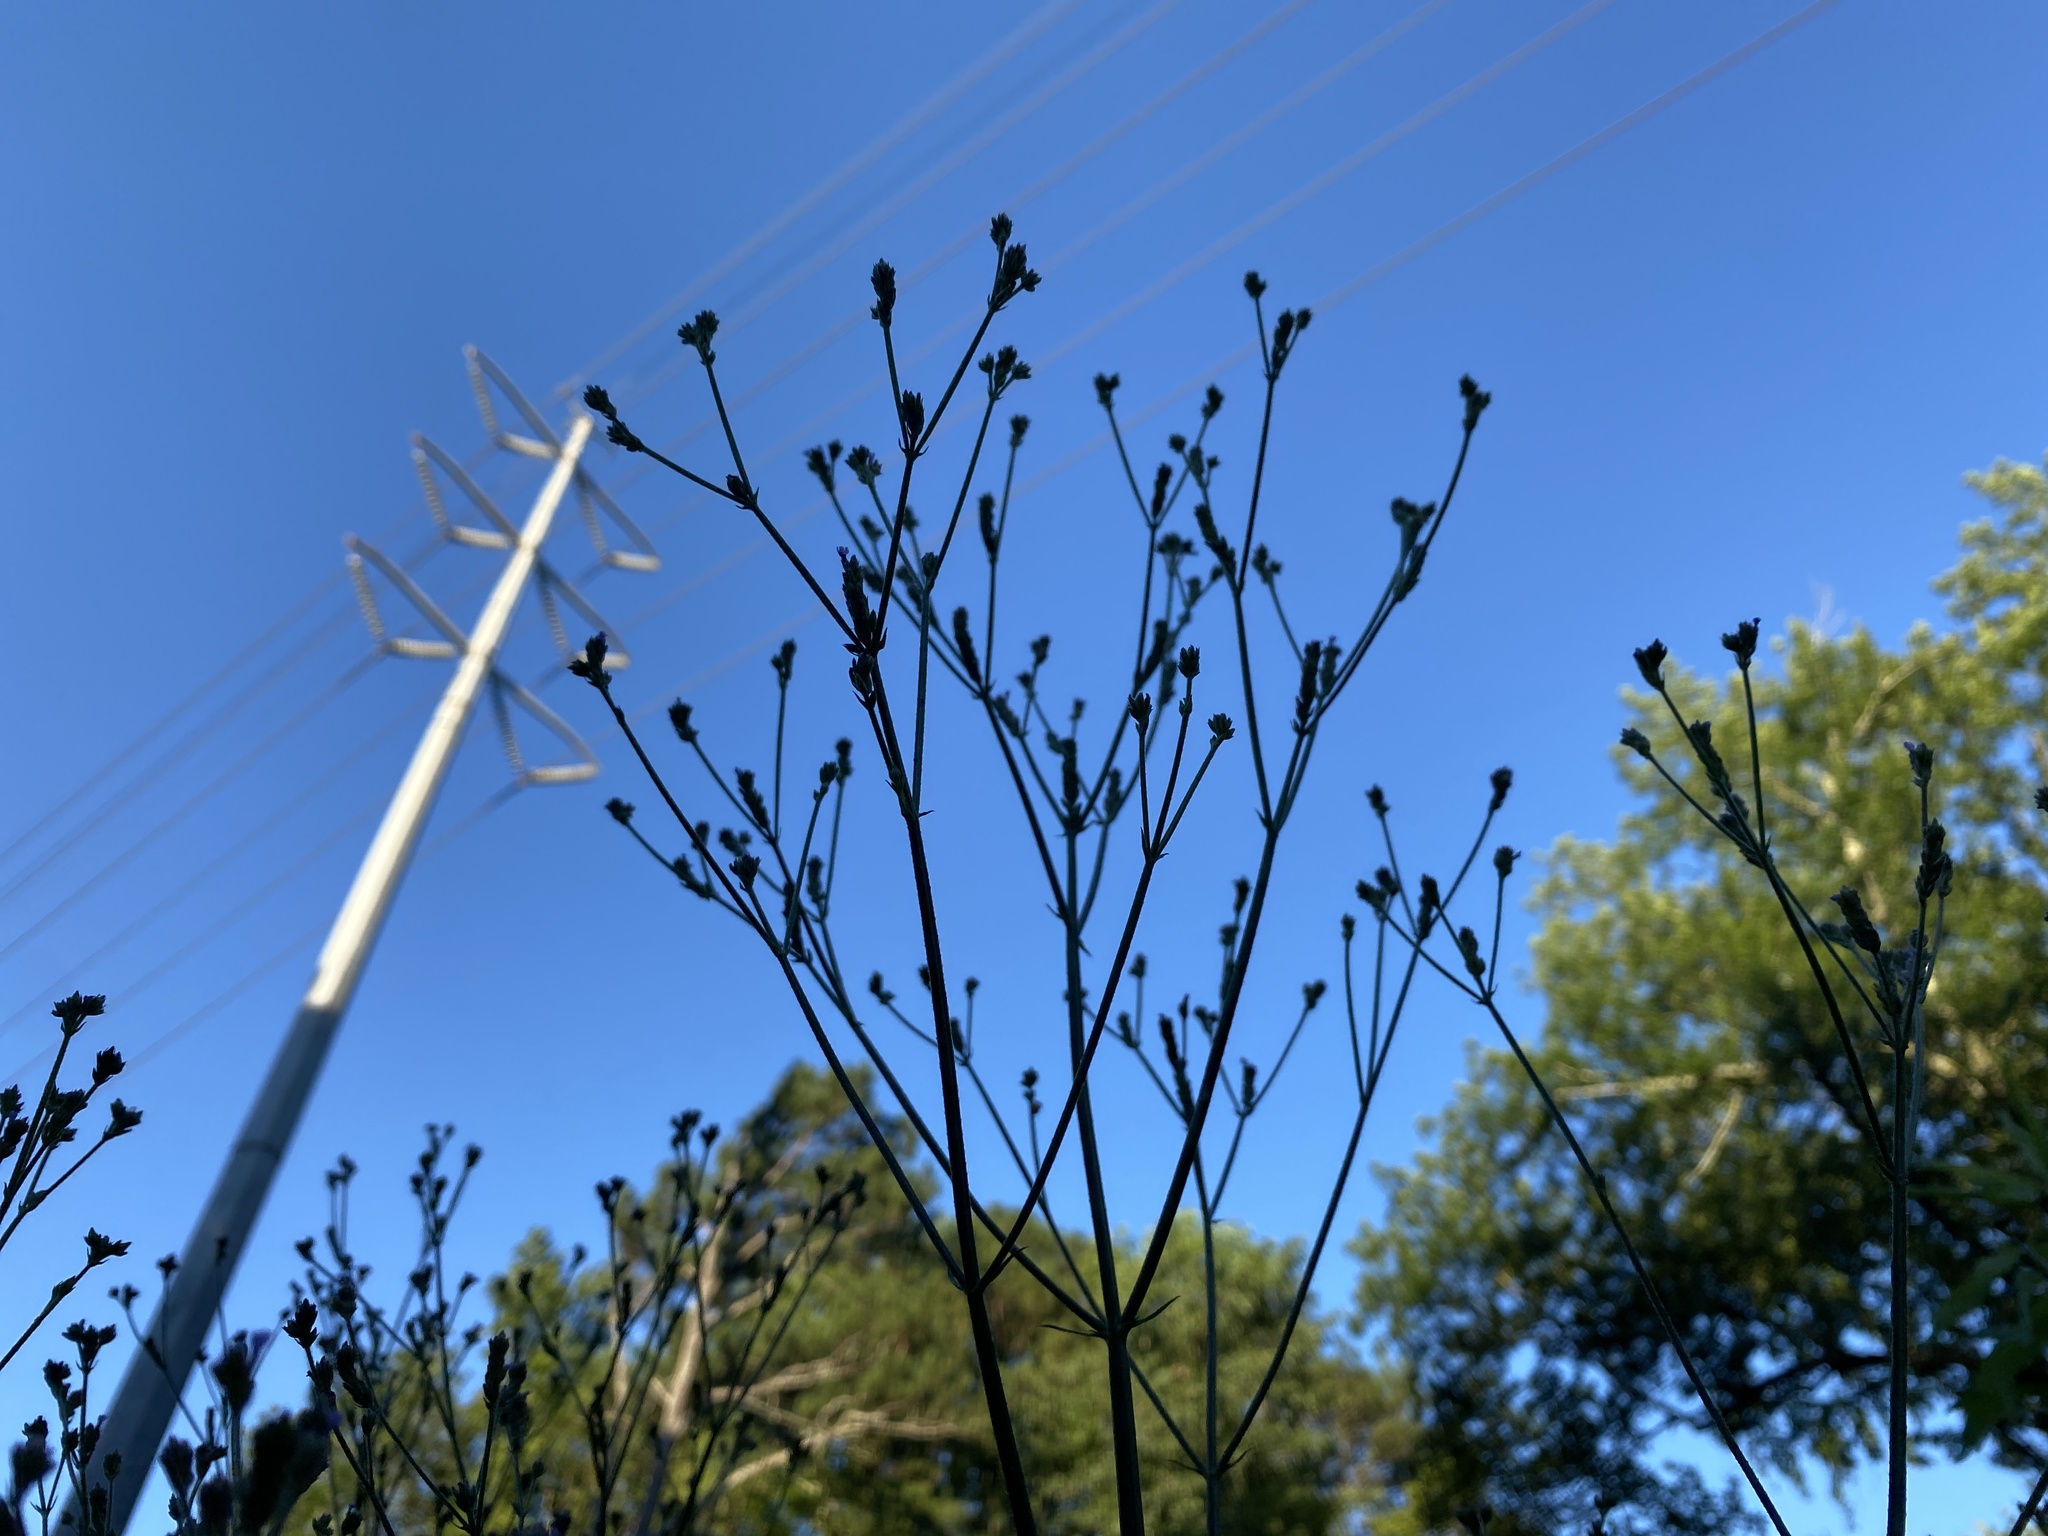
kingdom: Plantae
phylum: Tracheophyta
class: Magnoliopsida
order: Lamiales
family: Verbenaceae
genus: Verbena
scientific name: Verbena brasiliensis
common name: Brazilian vervain
